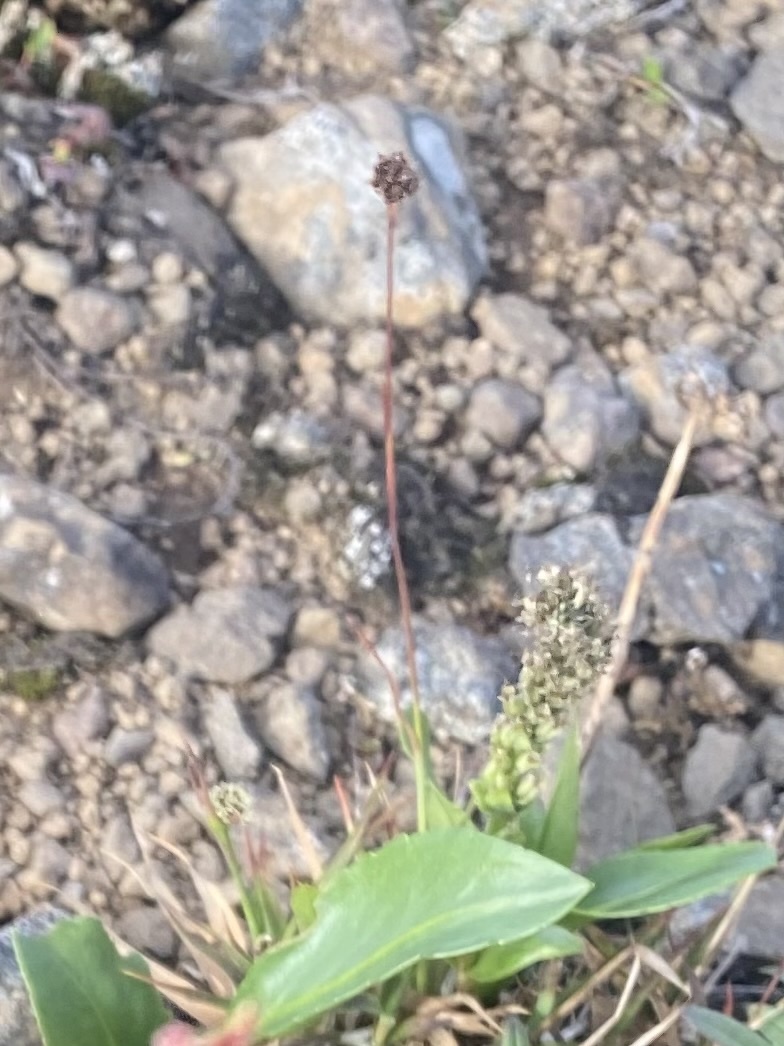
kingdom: Plantae
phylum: Tracheophyta
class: Liliopsida
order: Poales
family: Juncaceae
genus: Luzula
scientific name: Luzula nivalis
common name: Arctic woodrush
